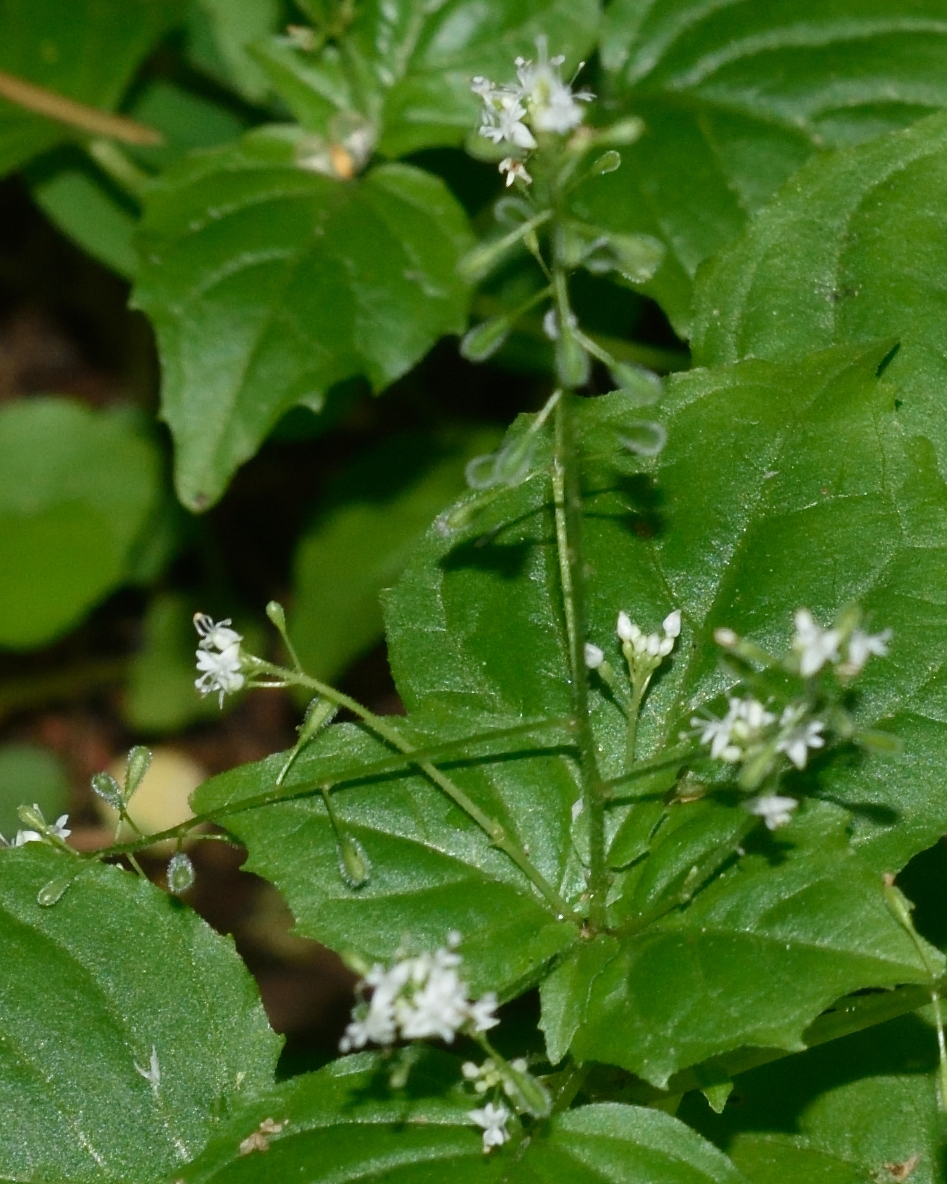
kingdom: Plantae
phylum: Tracheophyta
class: Magnoliopsida
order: Myrtales
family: Onagraceae
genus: Circaea
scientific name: Circaea alpina
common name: Alpine enchanter's-nightshade
